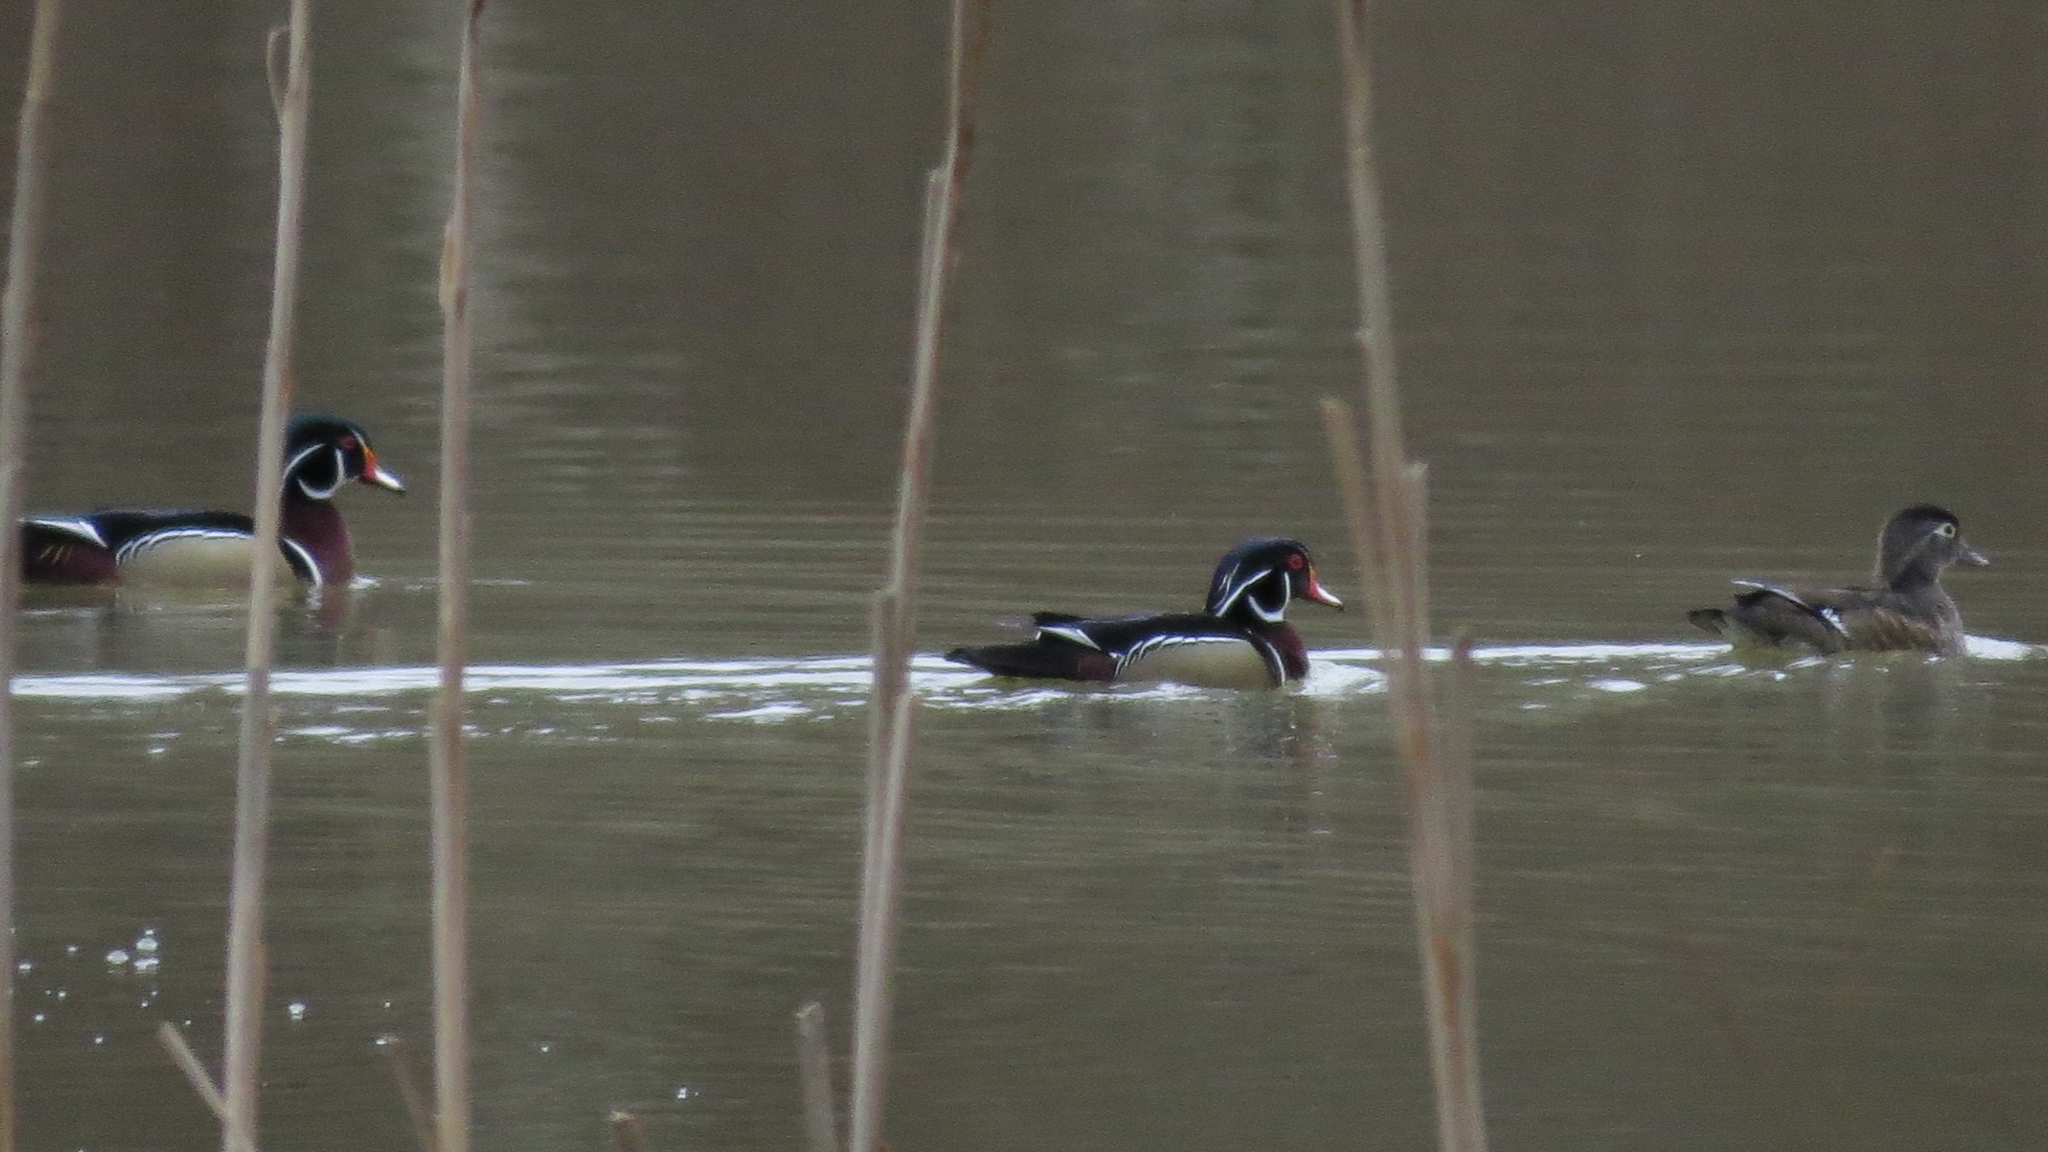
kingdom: Animalia
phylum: Chordata
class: Aves
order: Anseriformes
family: Anatidae
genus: Aix
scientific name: Aix sponsa
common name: Wood duck
